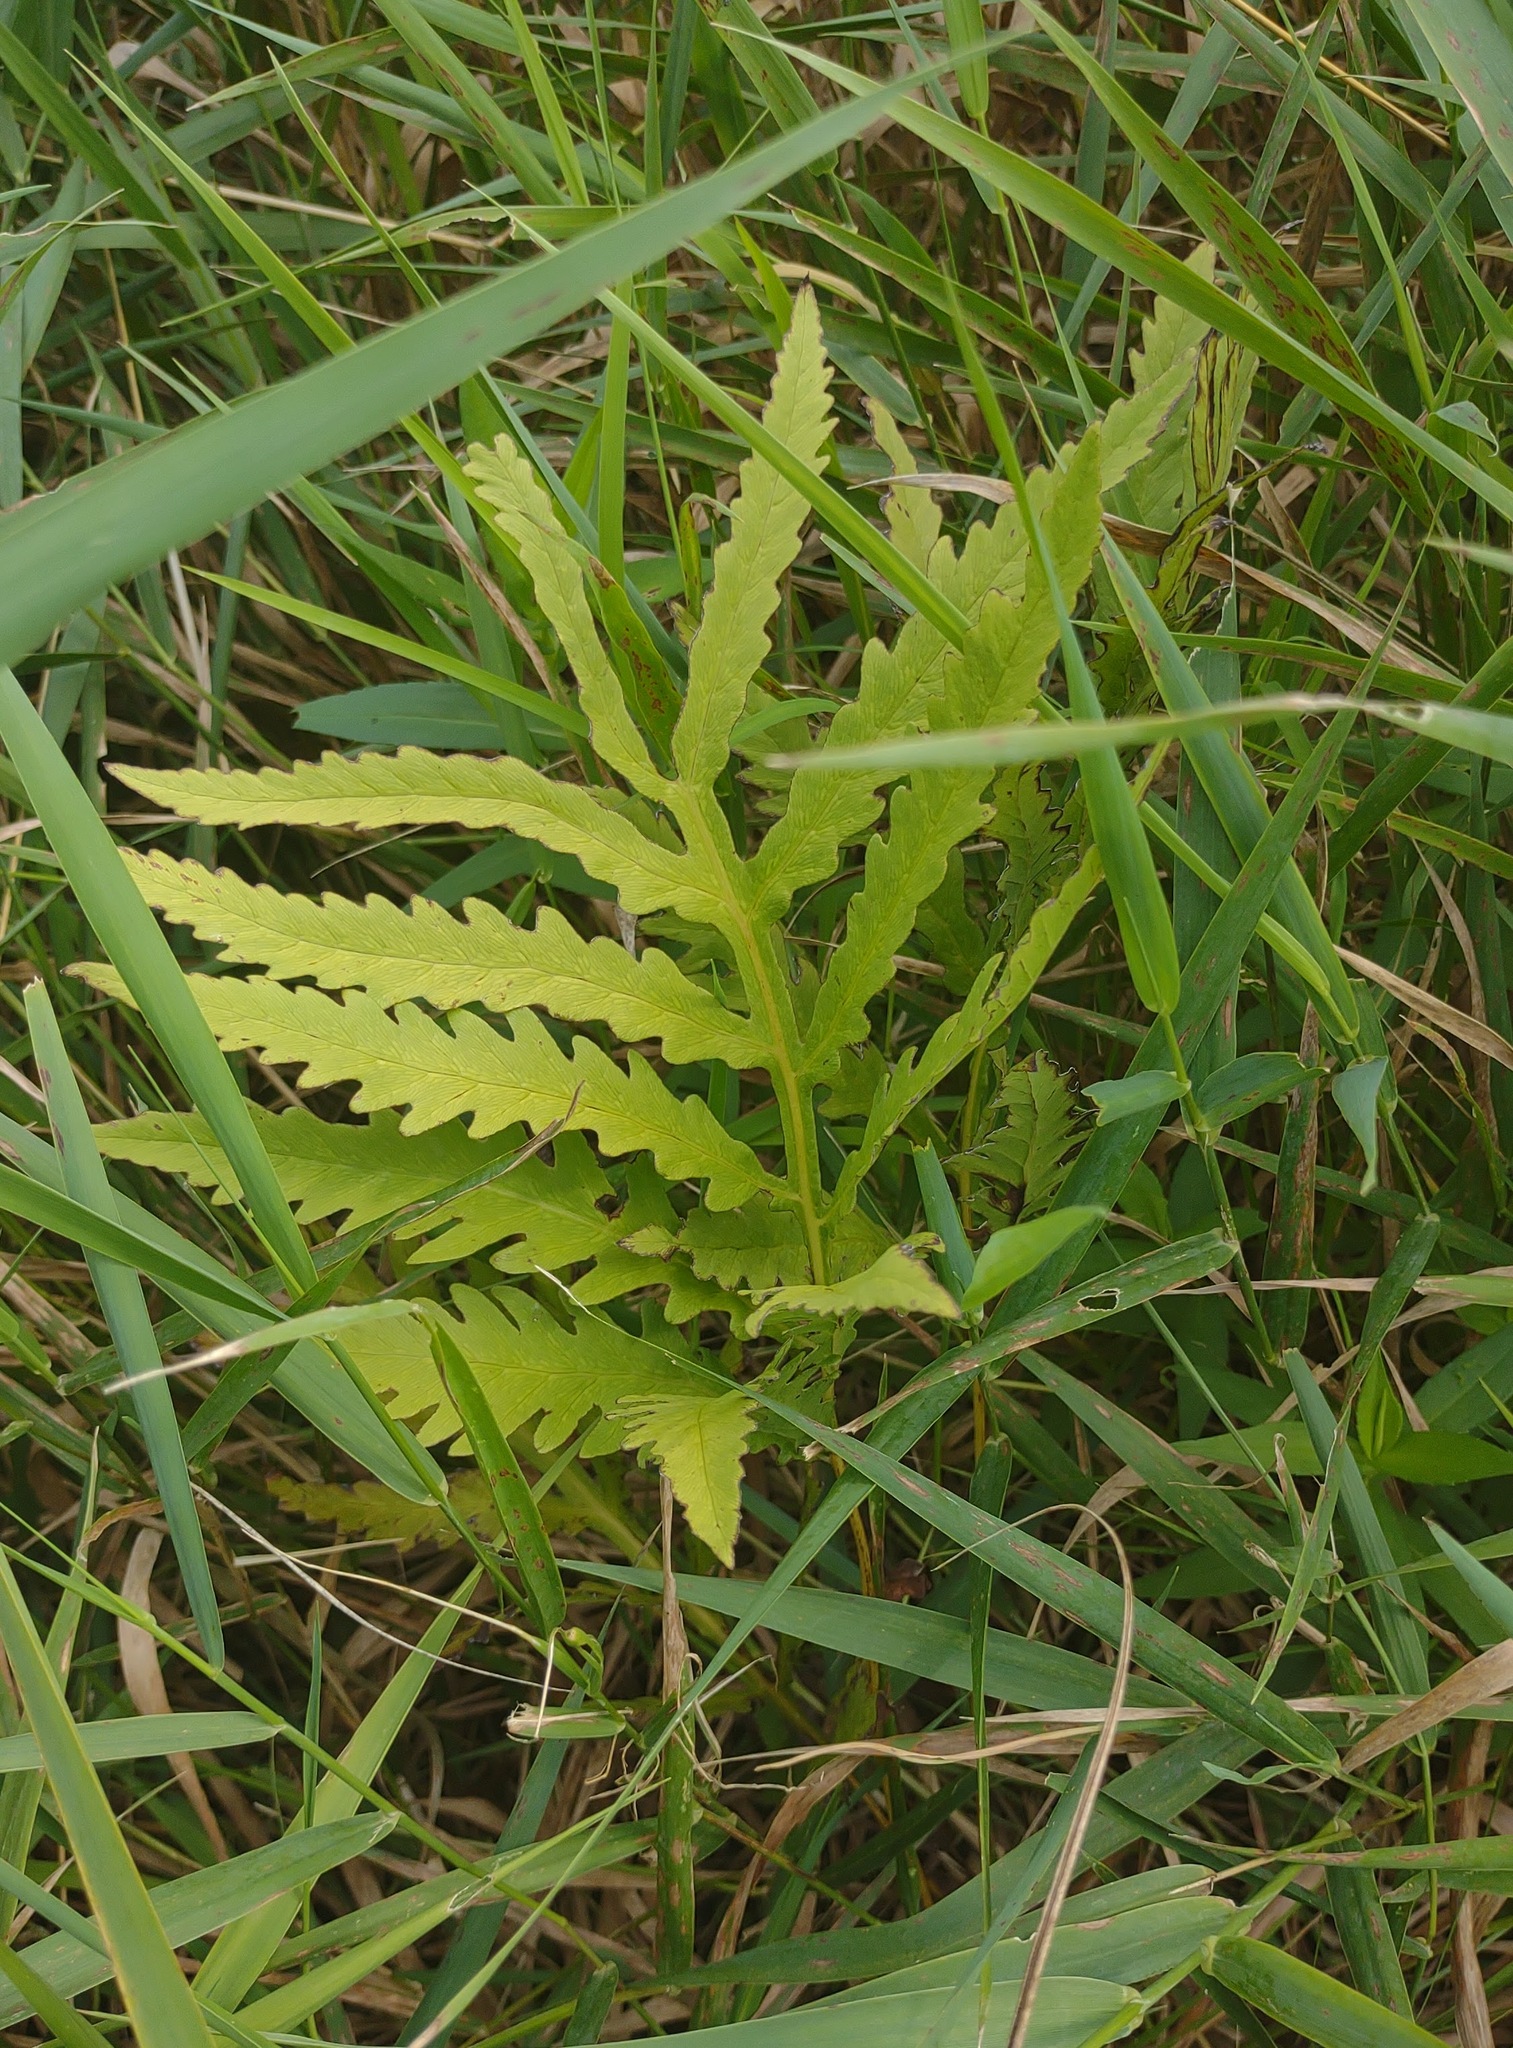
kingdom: Plantae
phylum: Tracheophyta
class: Polypodiopsida
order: Polypodiales
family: Onocleaceae
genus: Onoclea
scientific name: Onoclea sensibilis
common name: Sensitive fern
